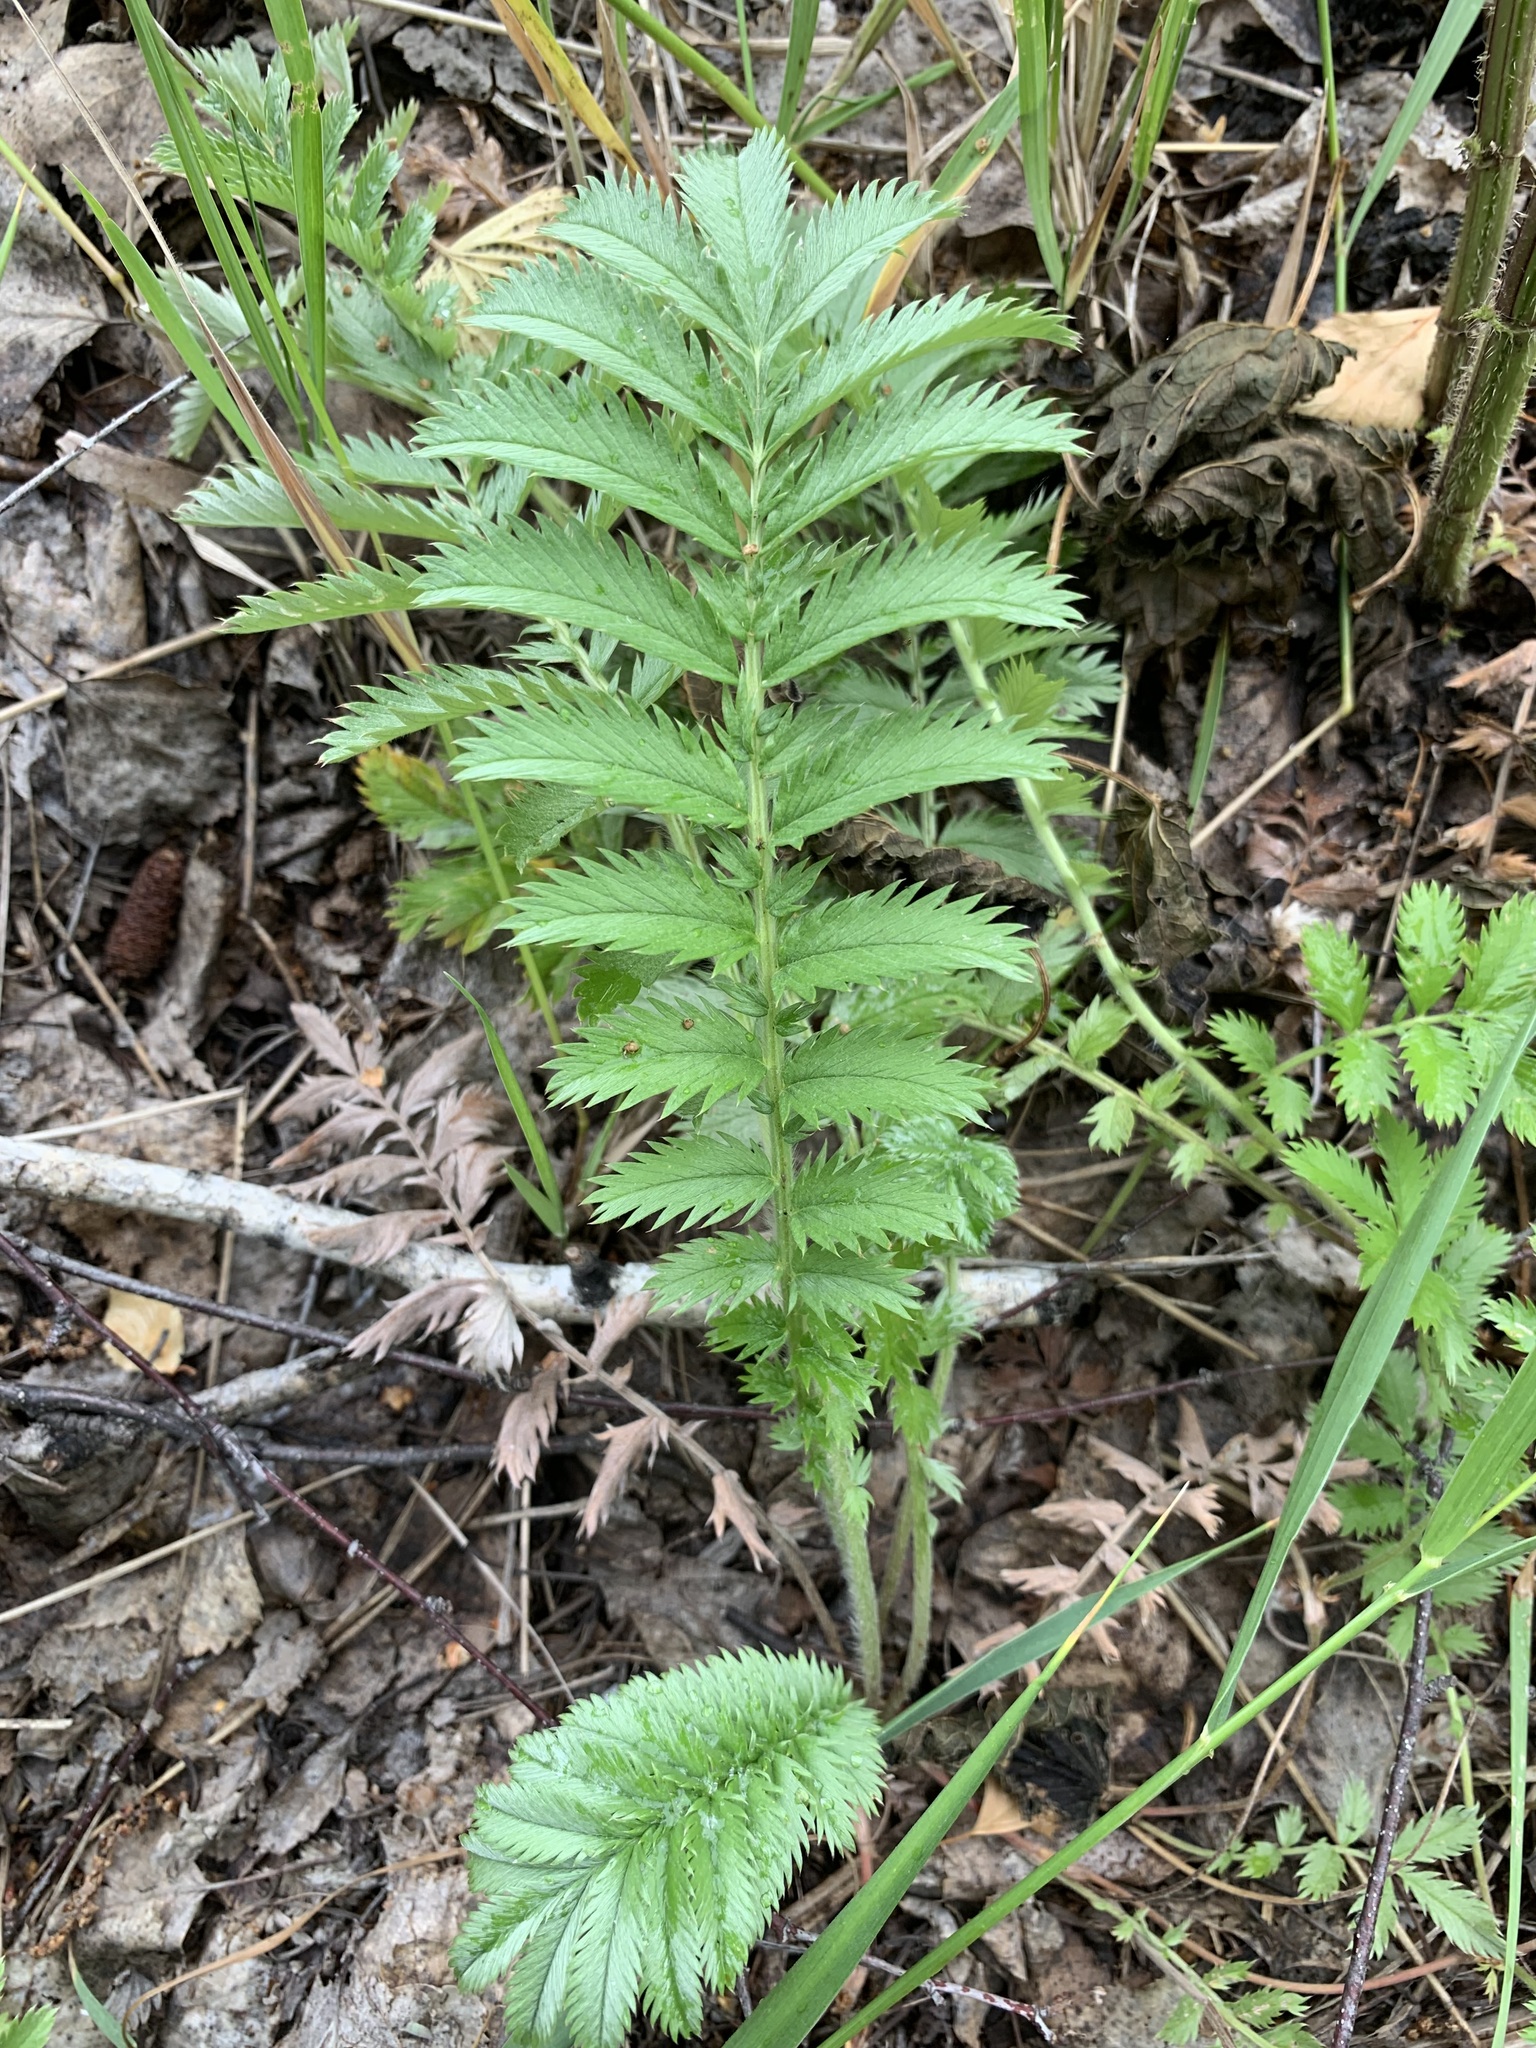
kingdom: Plantae
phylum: Tracheophyta
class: Magnoliopsida
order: Rosales
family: Rosaceae
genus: Argentina
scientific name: Argentina anserina
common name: Common silverweed
